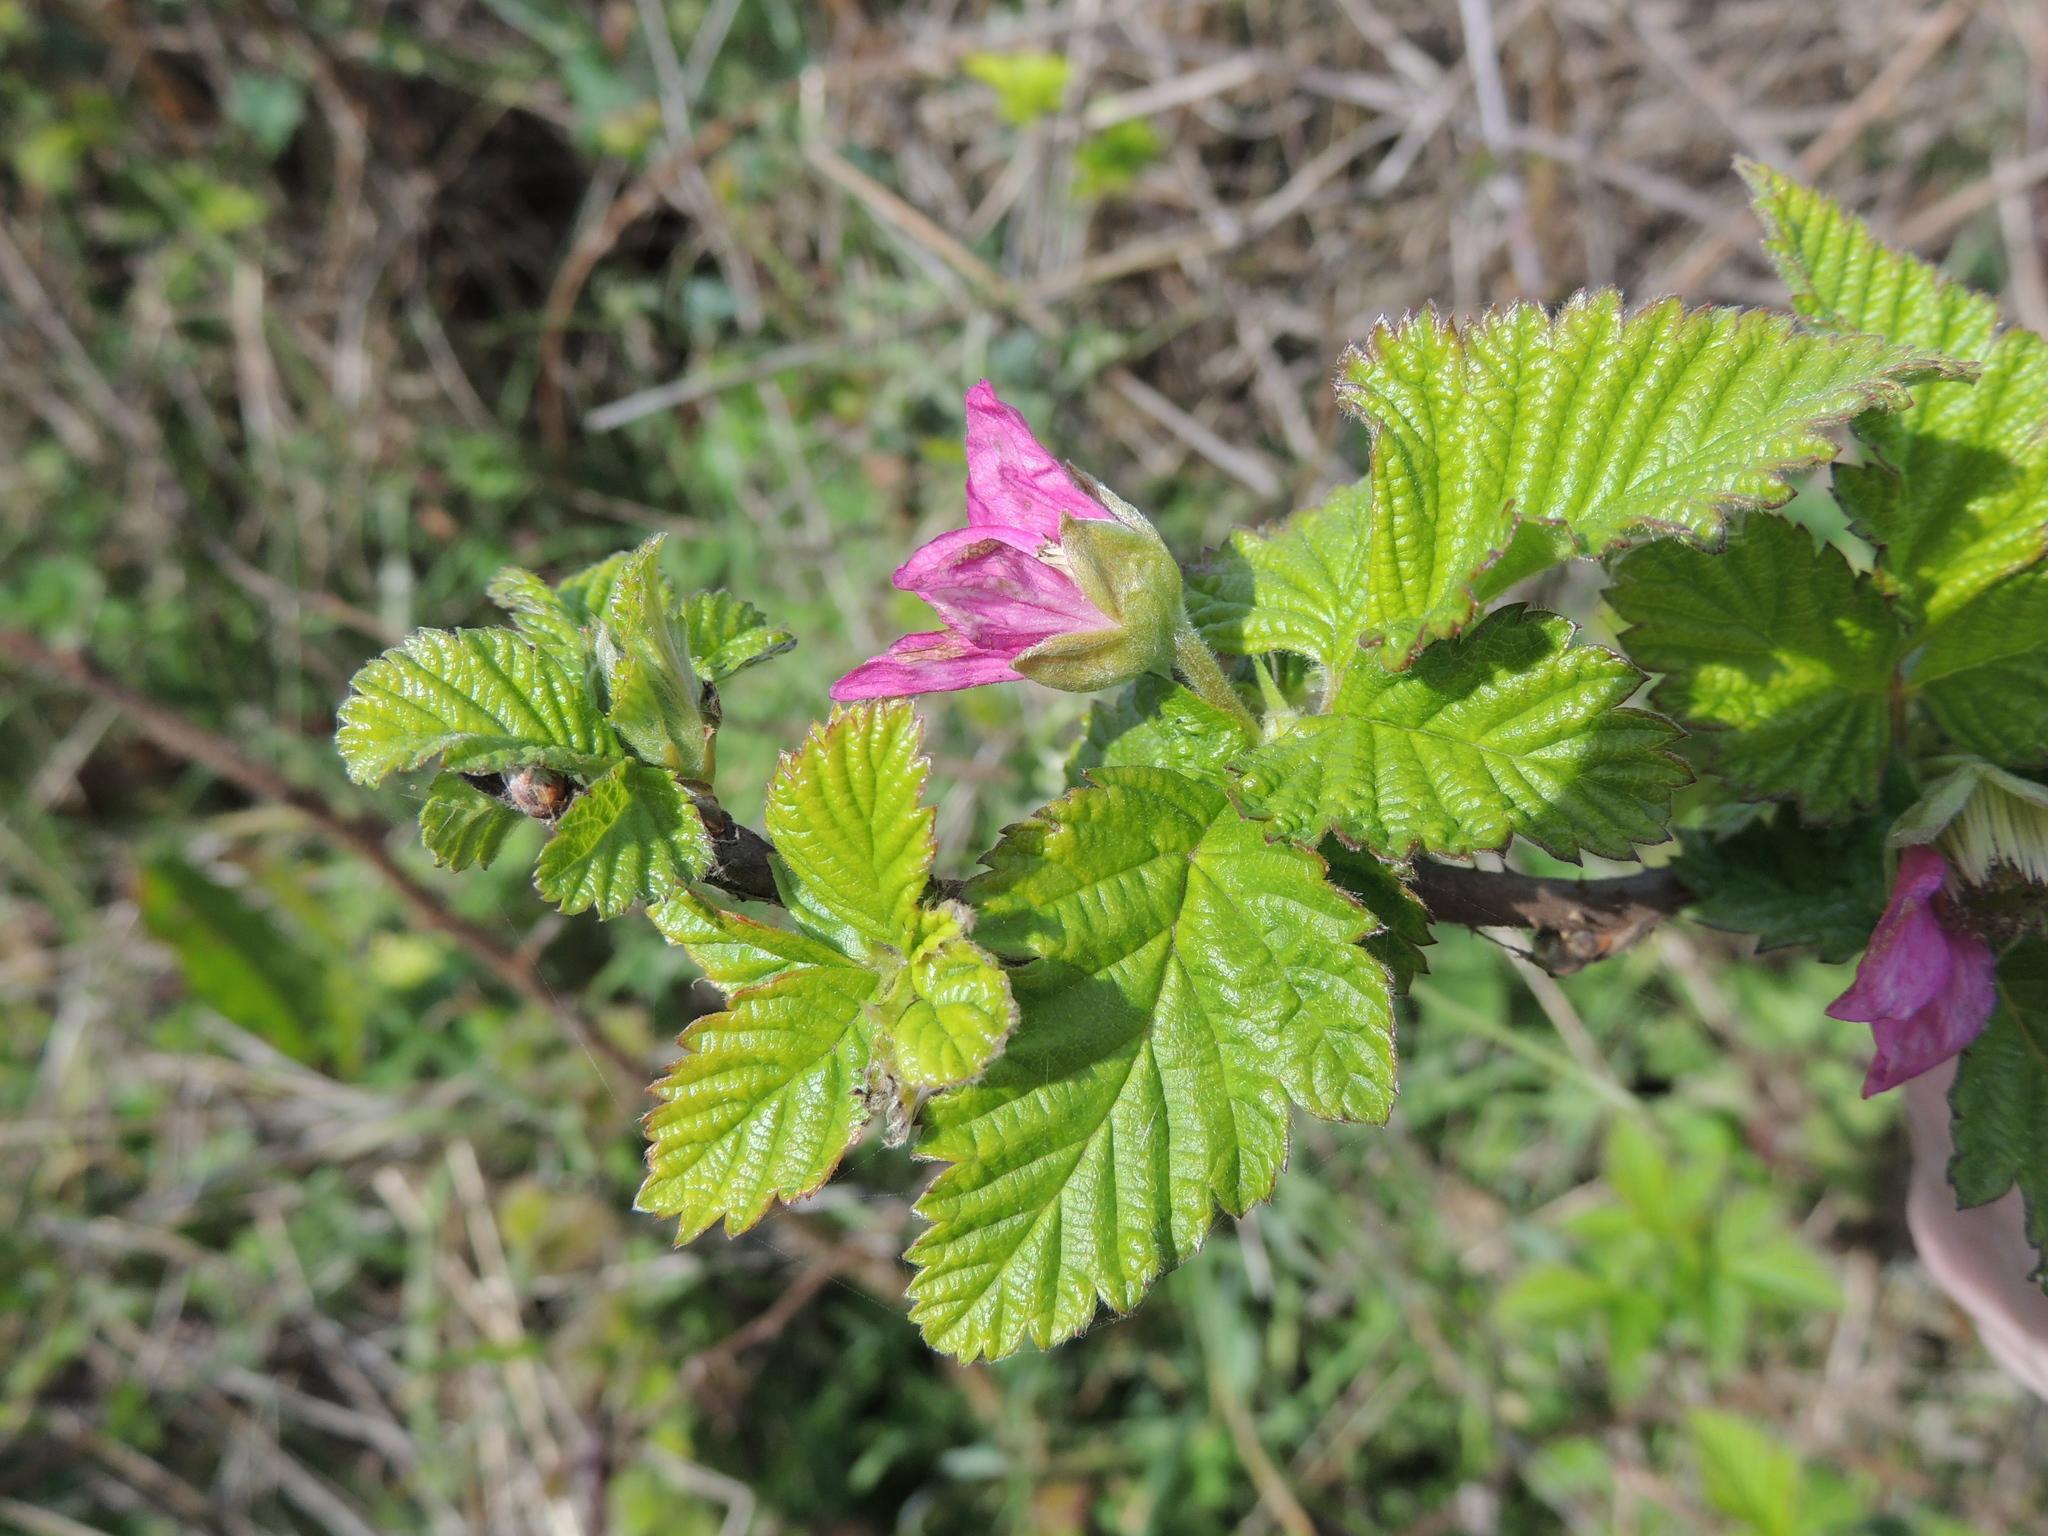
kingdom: Plantae
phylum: Tracheophyta
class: Magnoliopsida
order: Rosales
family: Rosaceae
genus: Rubus
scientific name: Rubus spectabilis
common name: Salmonberry
